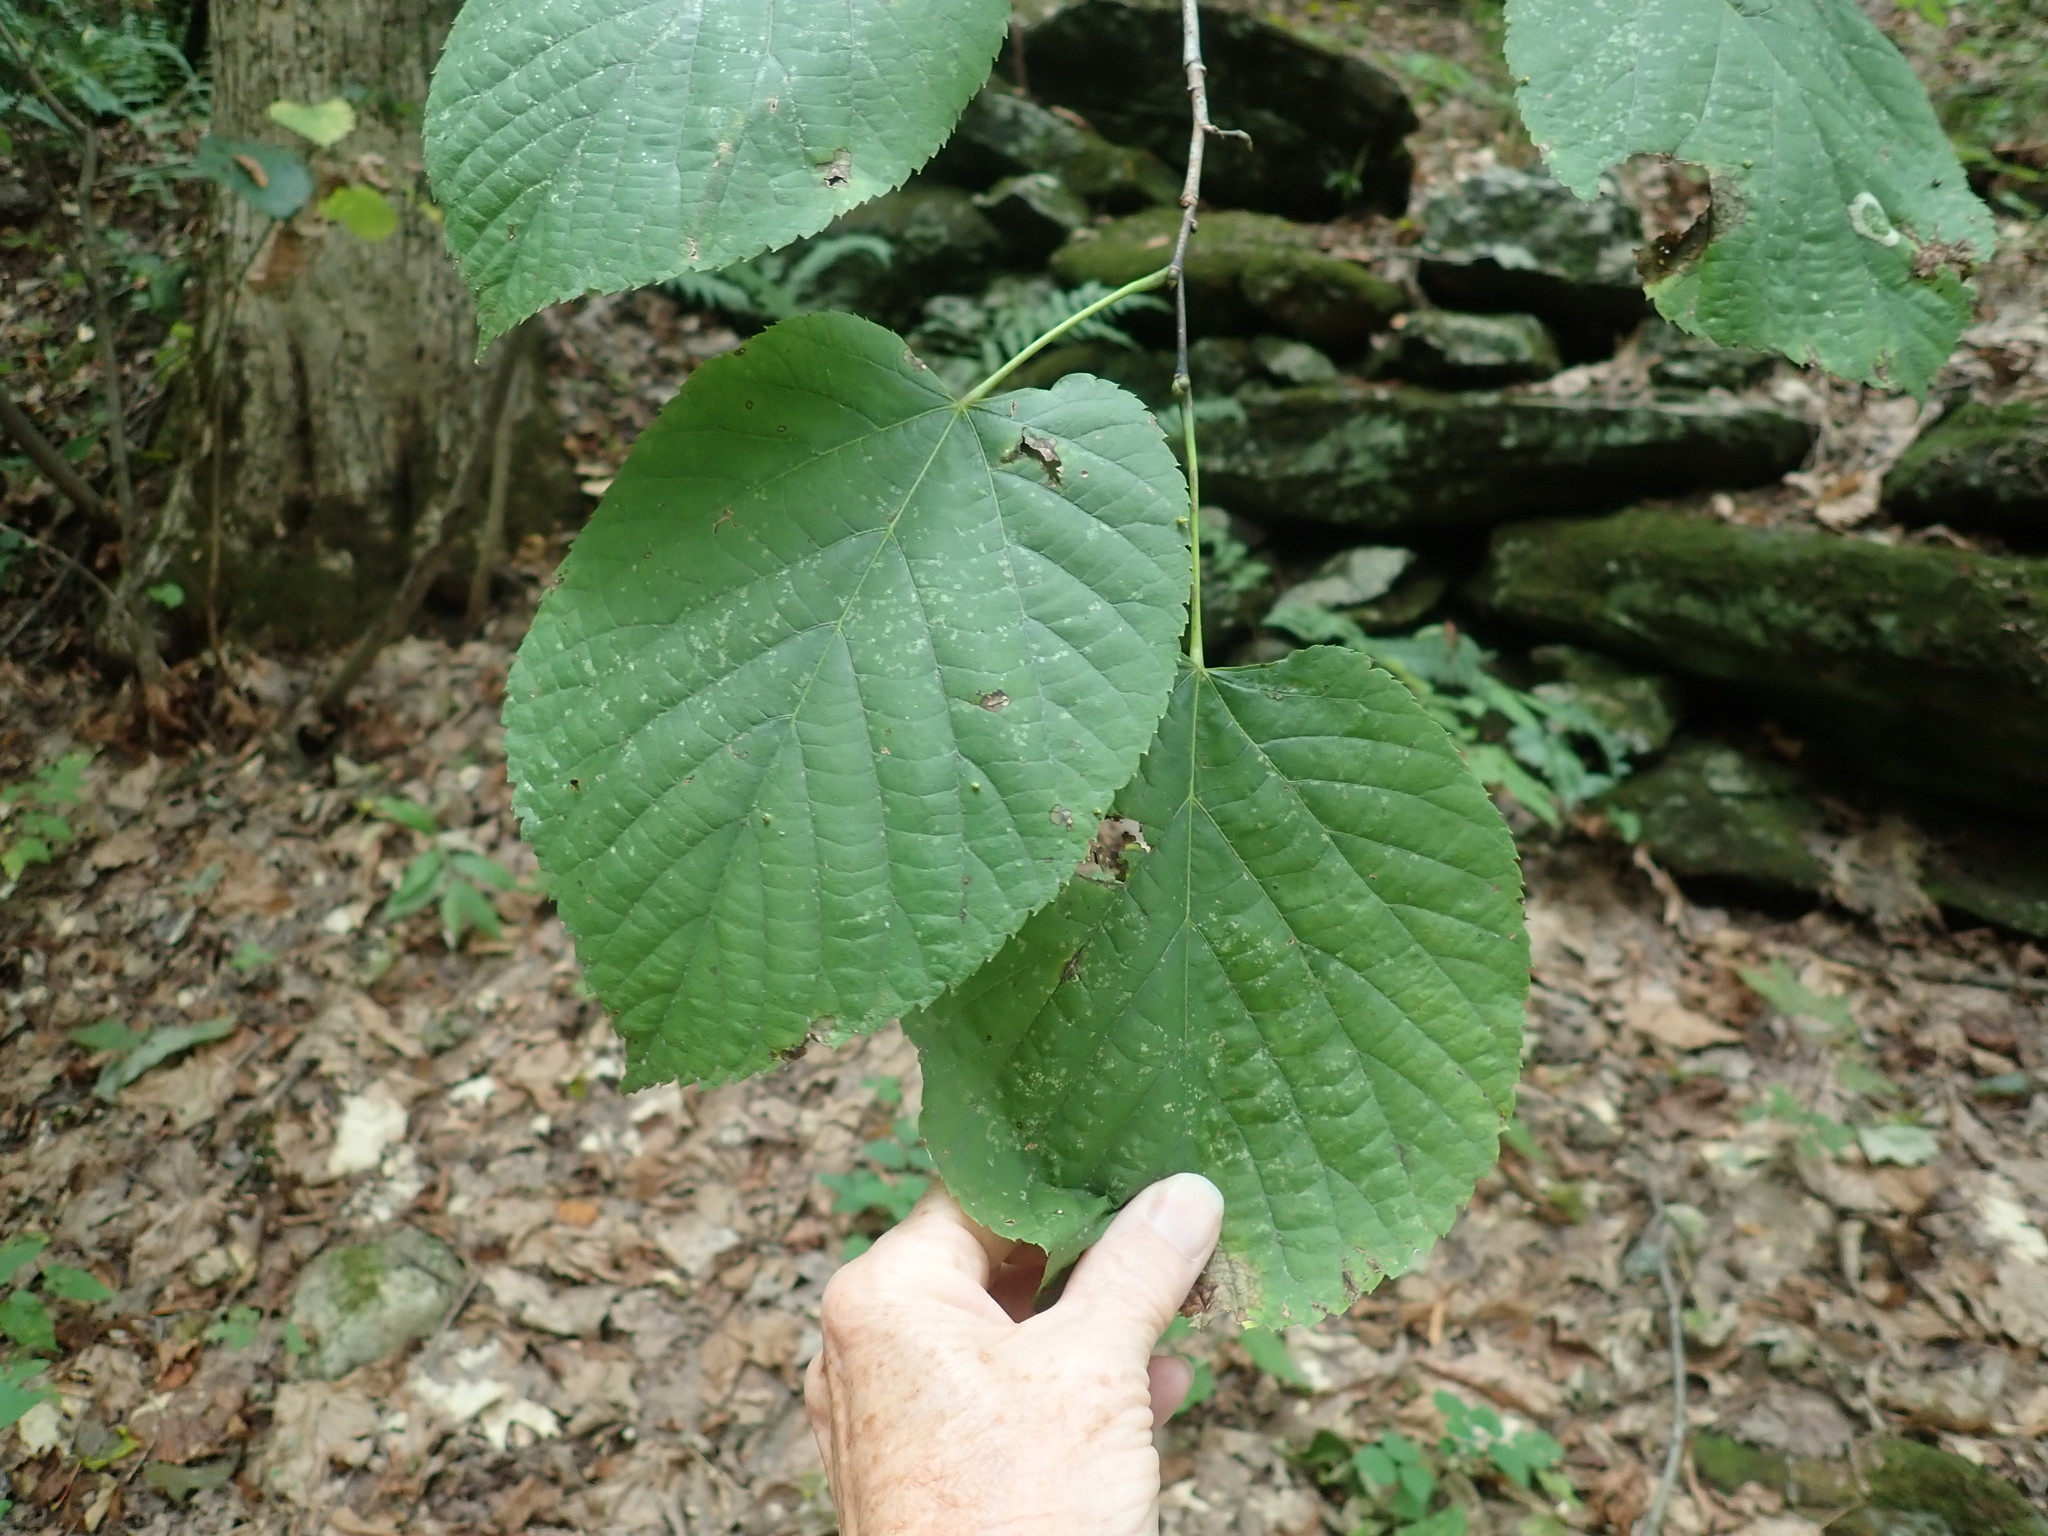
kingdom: Plantae
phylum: Tracheophyta
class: Magnoliopsida
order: Malvales
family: Malvaceae
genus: Tilia
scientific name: Tilia americana
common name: Basswood
